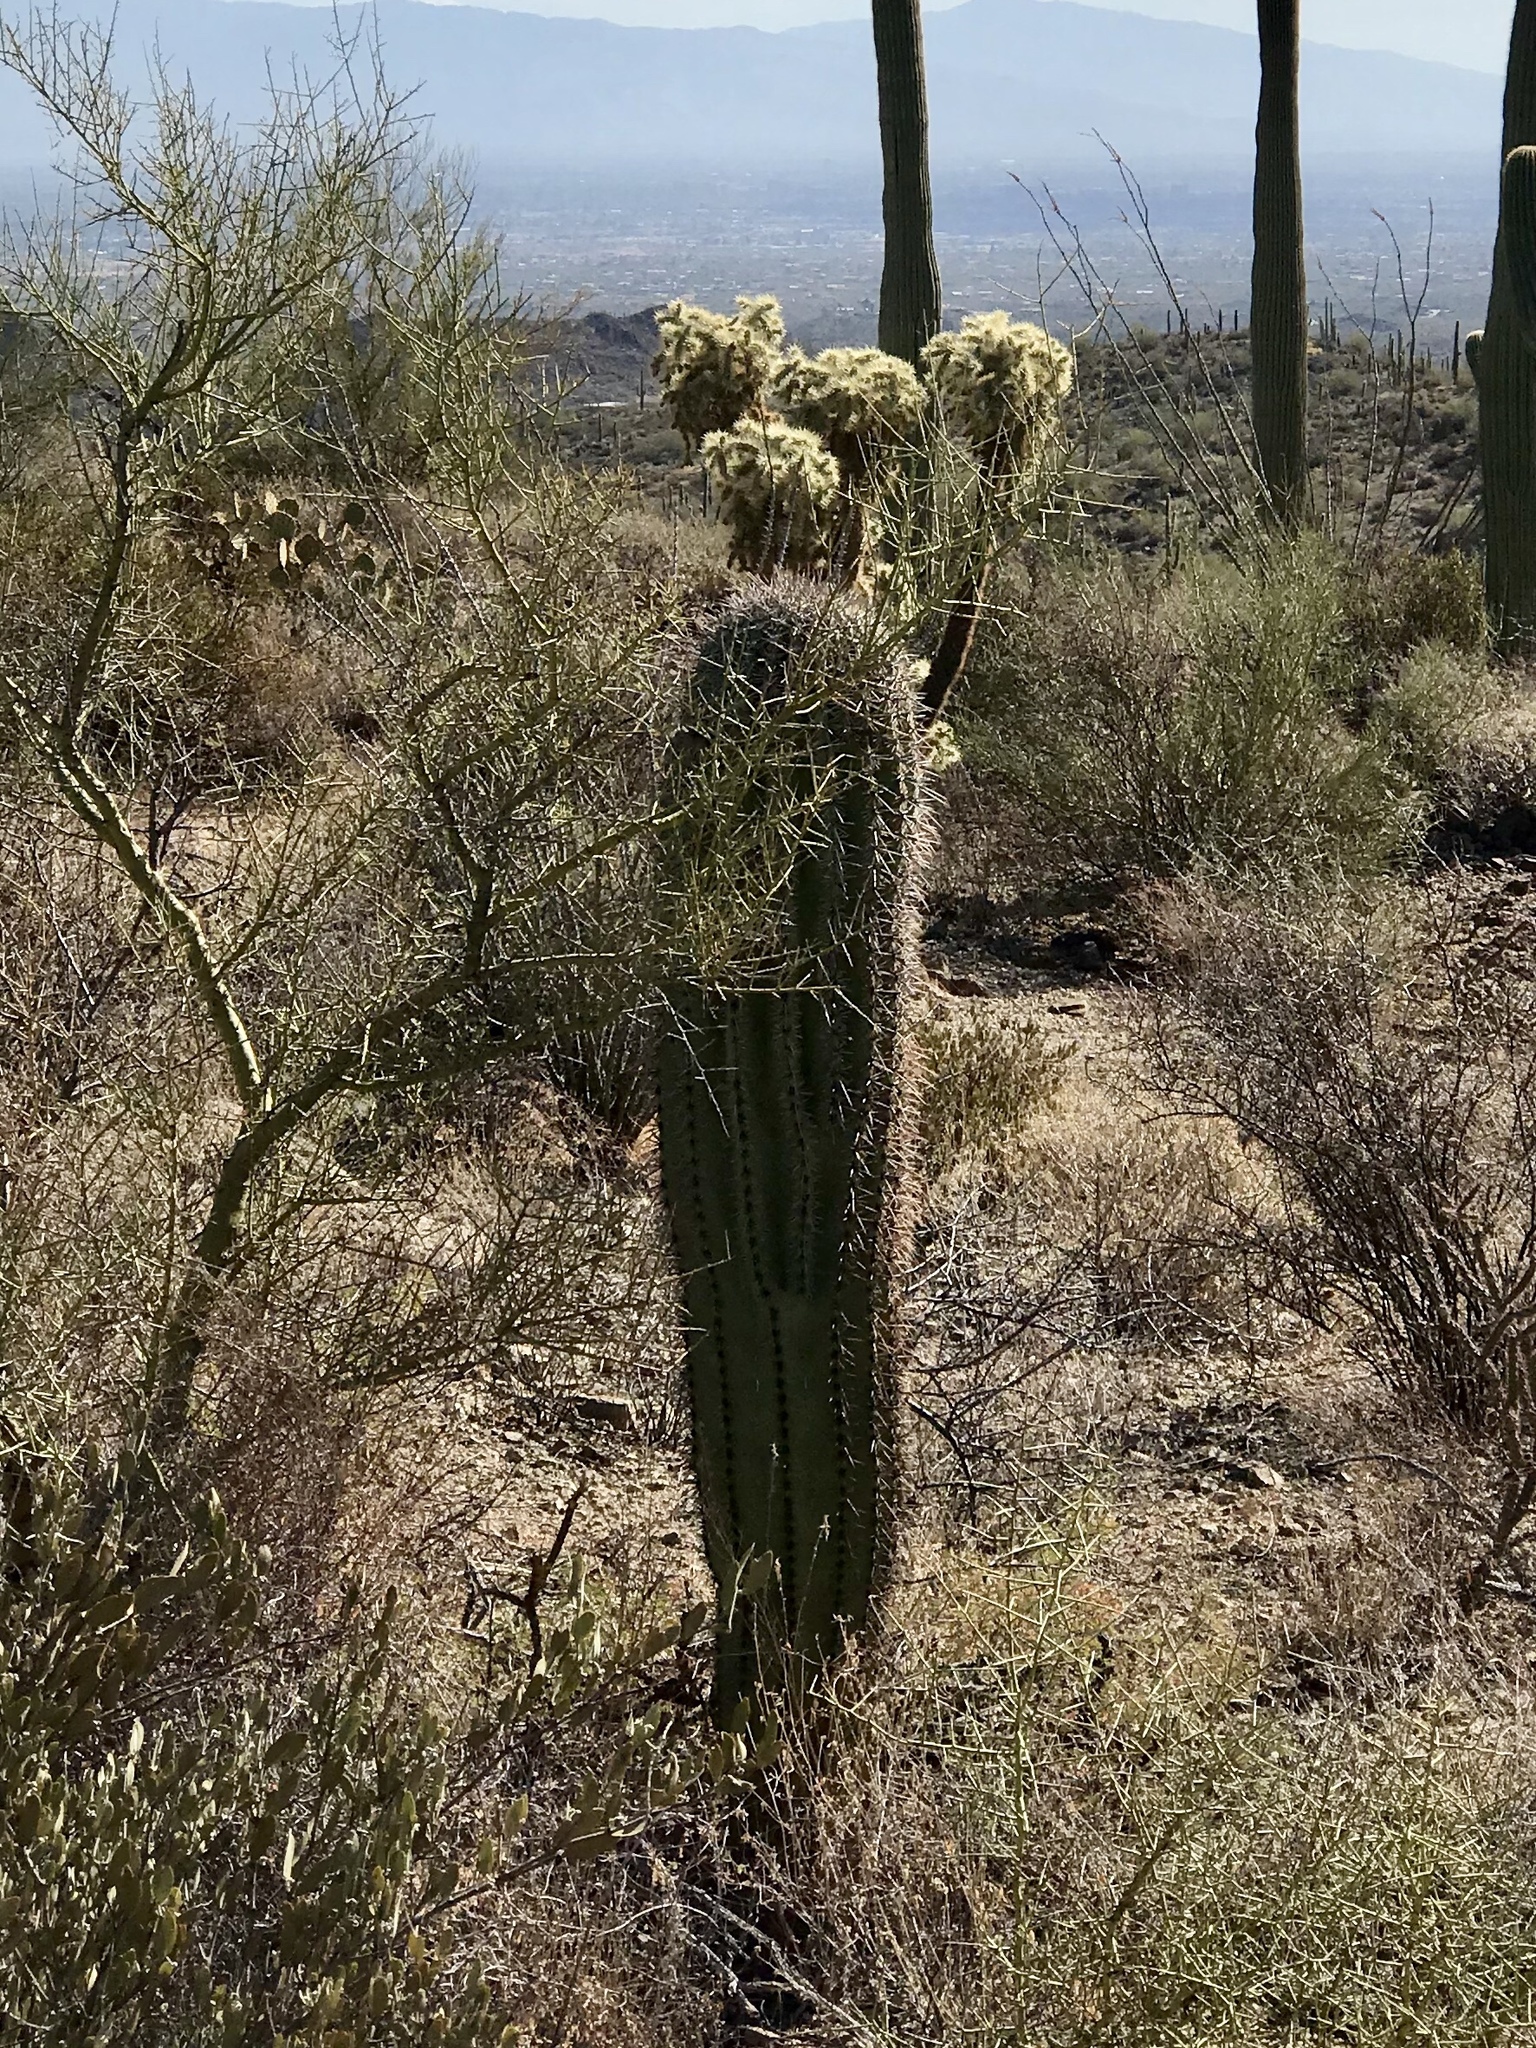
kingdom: Plantae
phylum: Tracheophyta
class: Magnoliopsida
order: Caryophyllales
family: Cactaceae
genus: Carnegiea
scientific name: Carnegiea gigantea
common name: Saguaro
